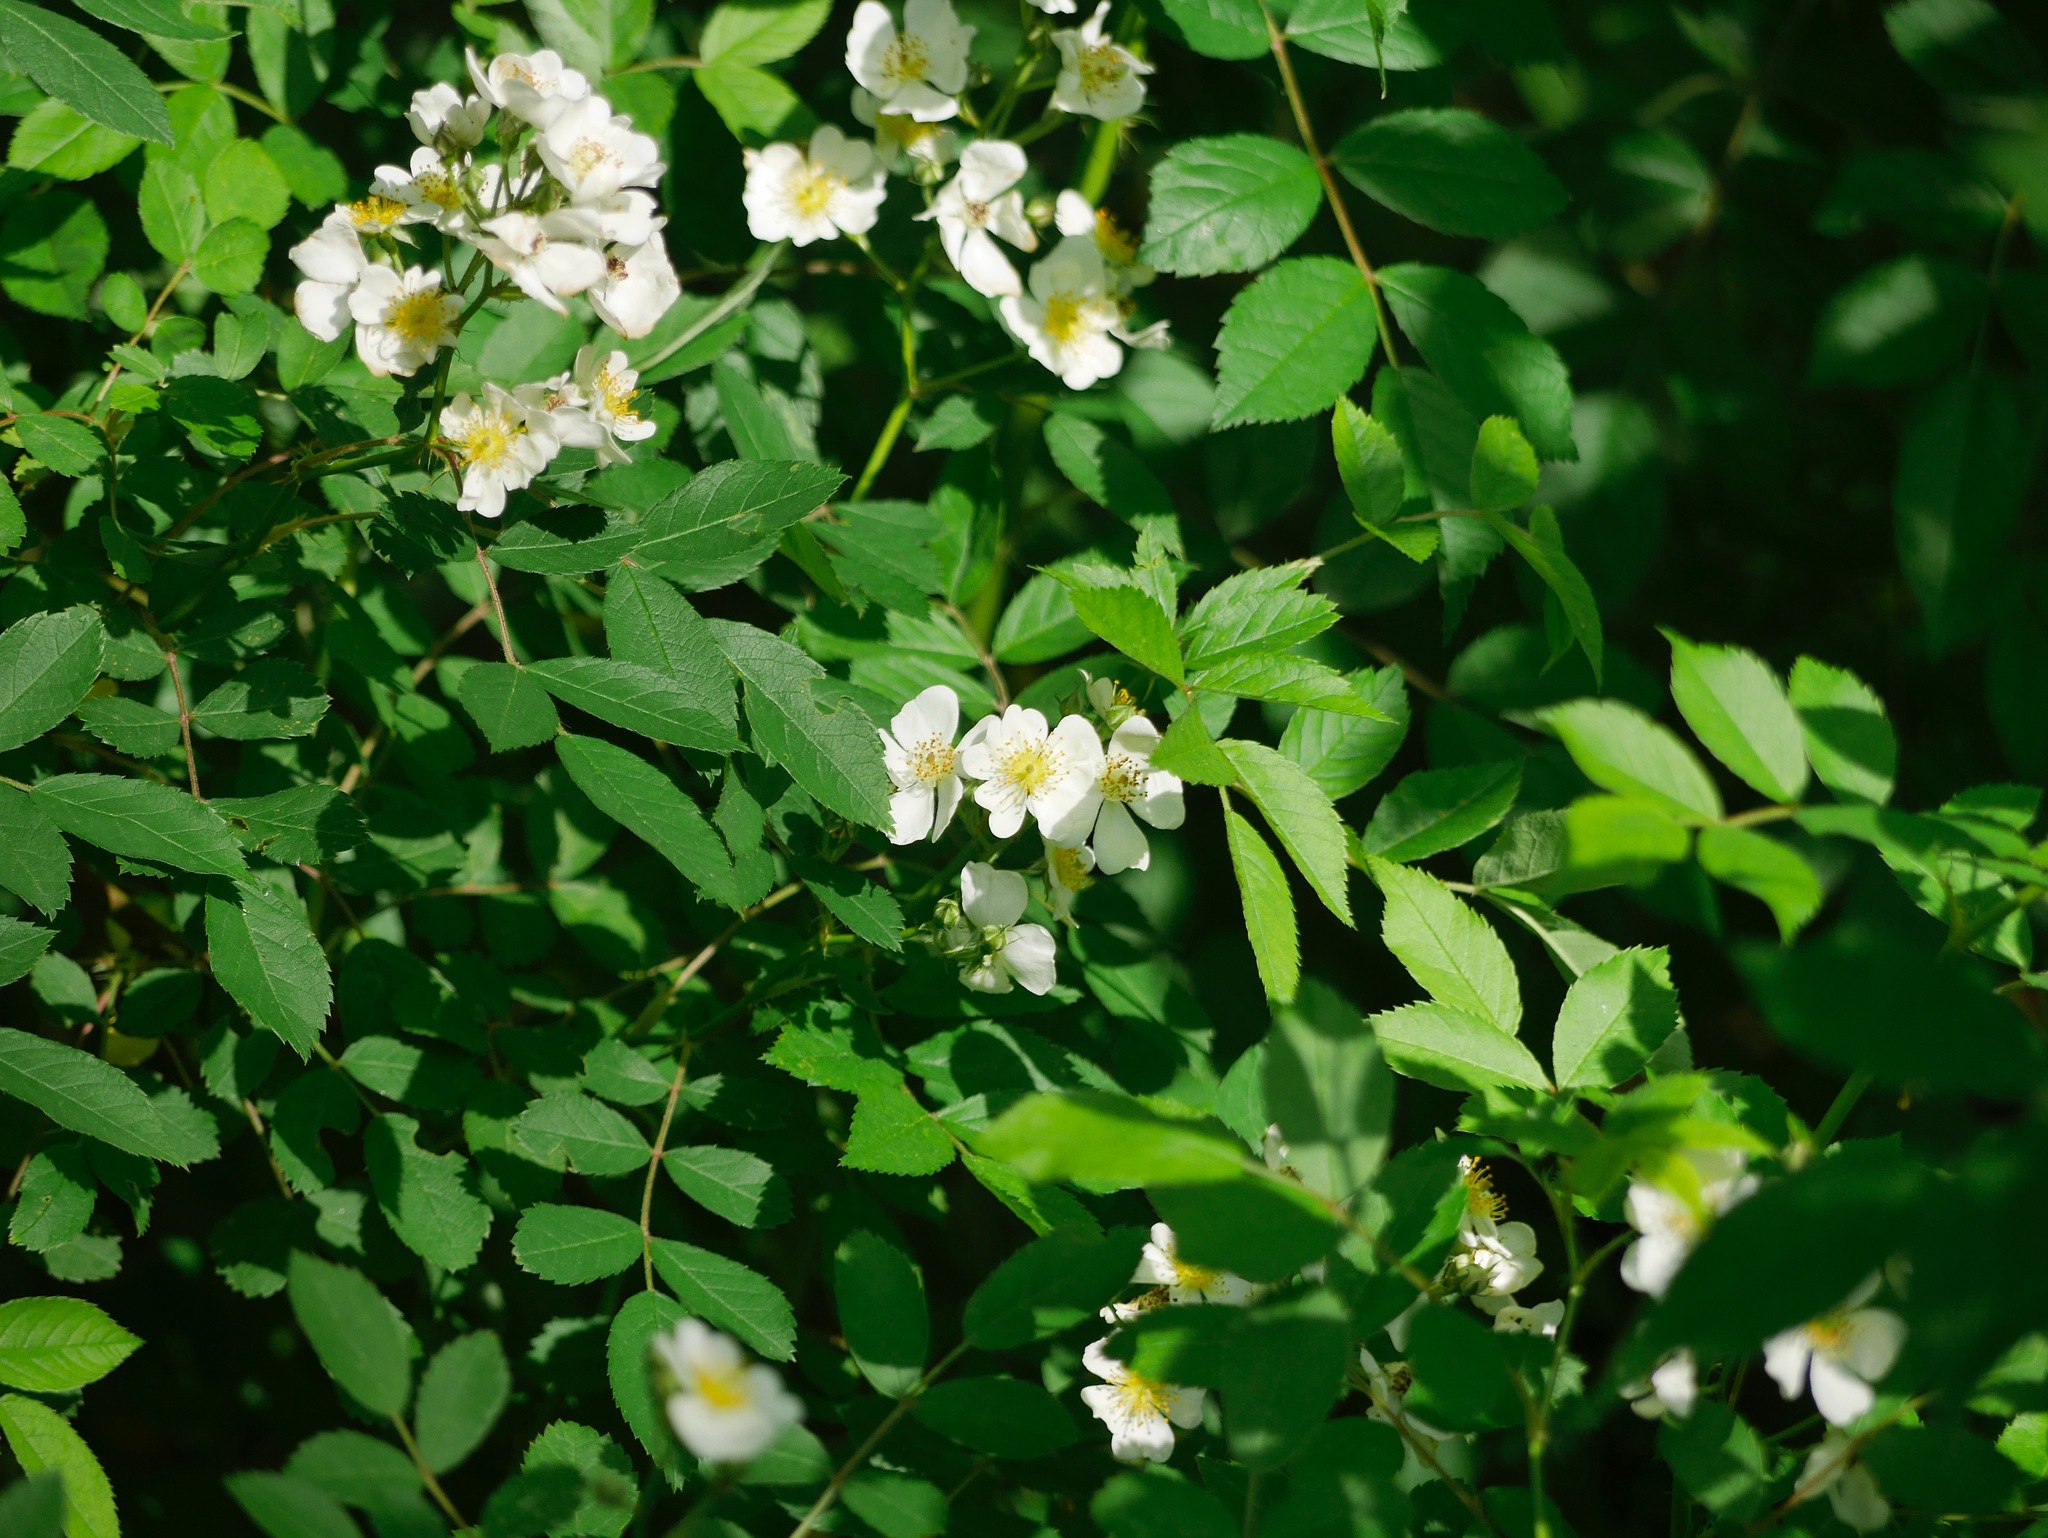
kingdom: Plantae
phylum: Tracheophyta
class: Magnoliopsida
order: Rosales
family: Rosaceae
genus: Rosa
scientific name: Rosa multiflora
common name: Multiflora rose
